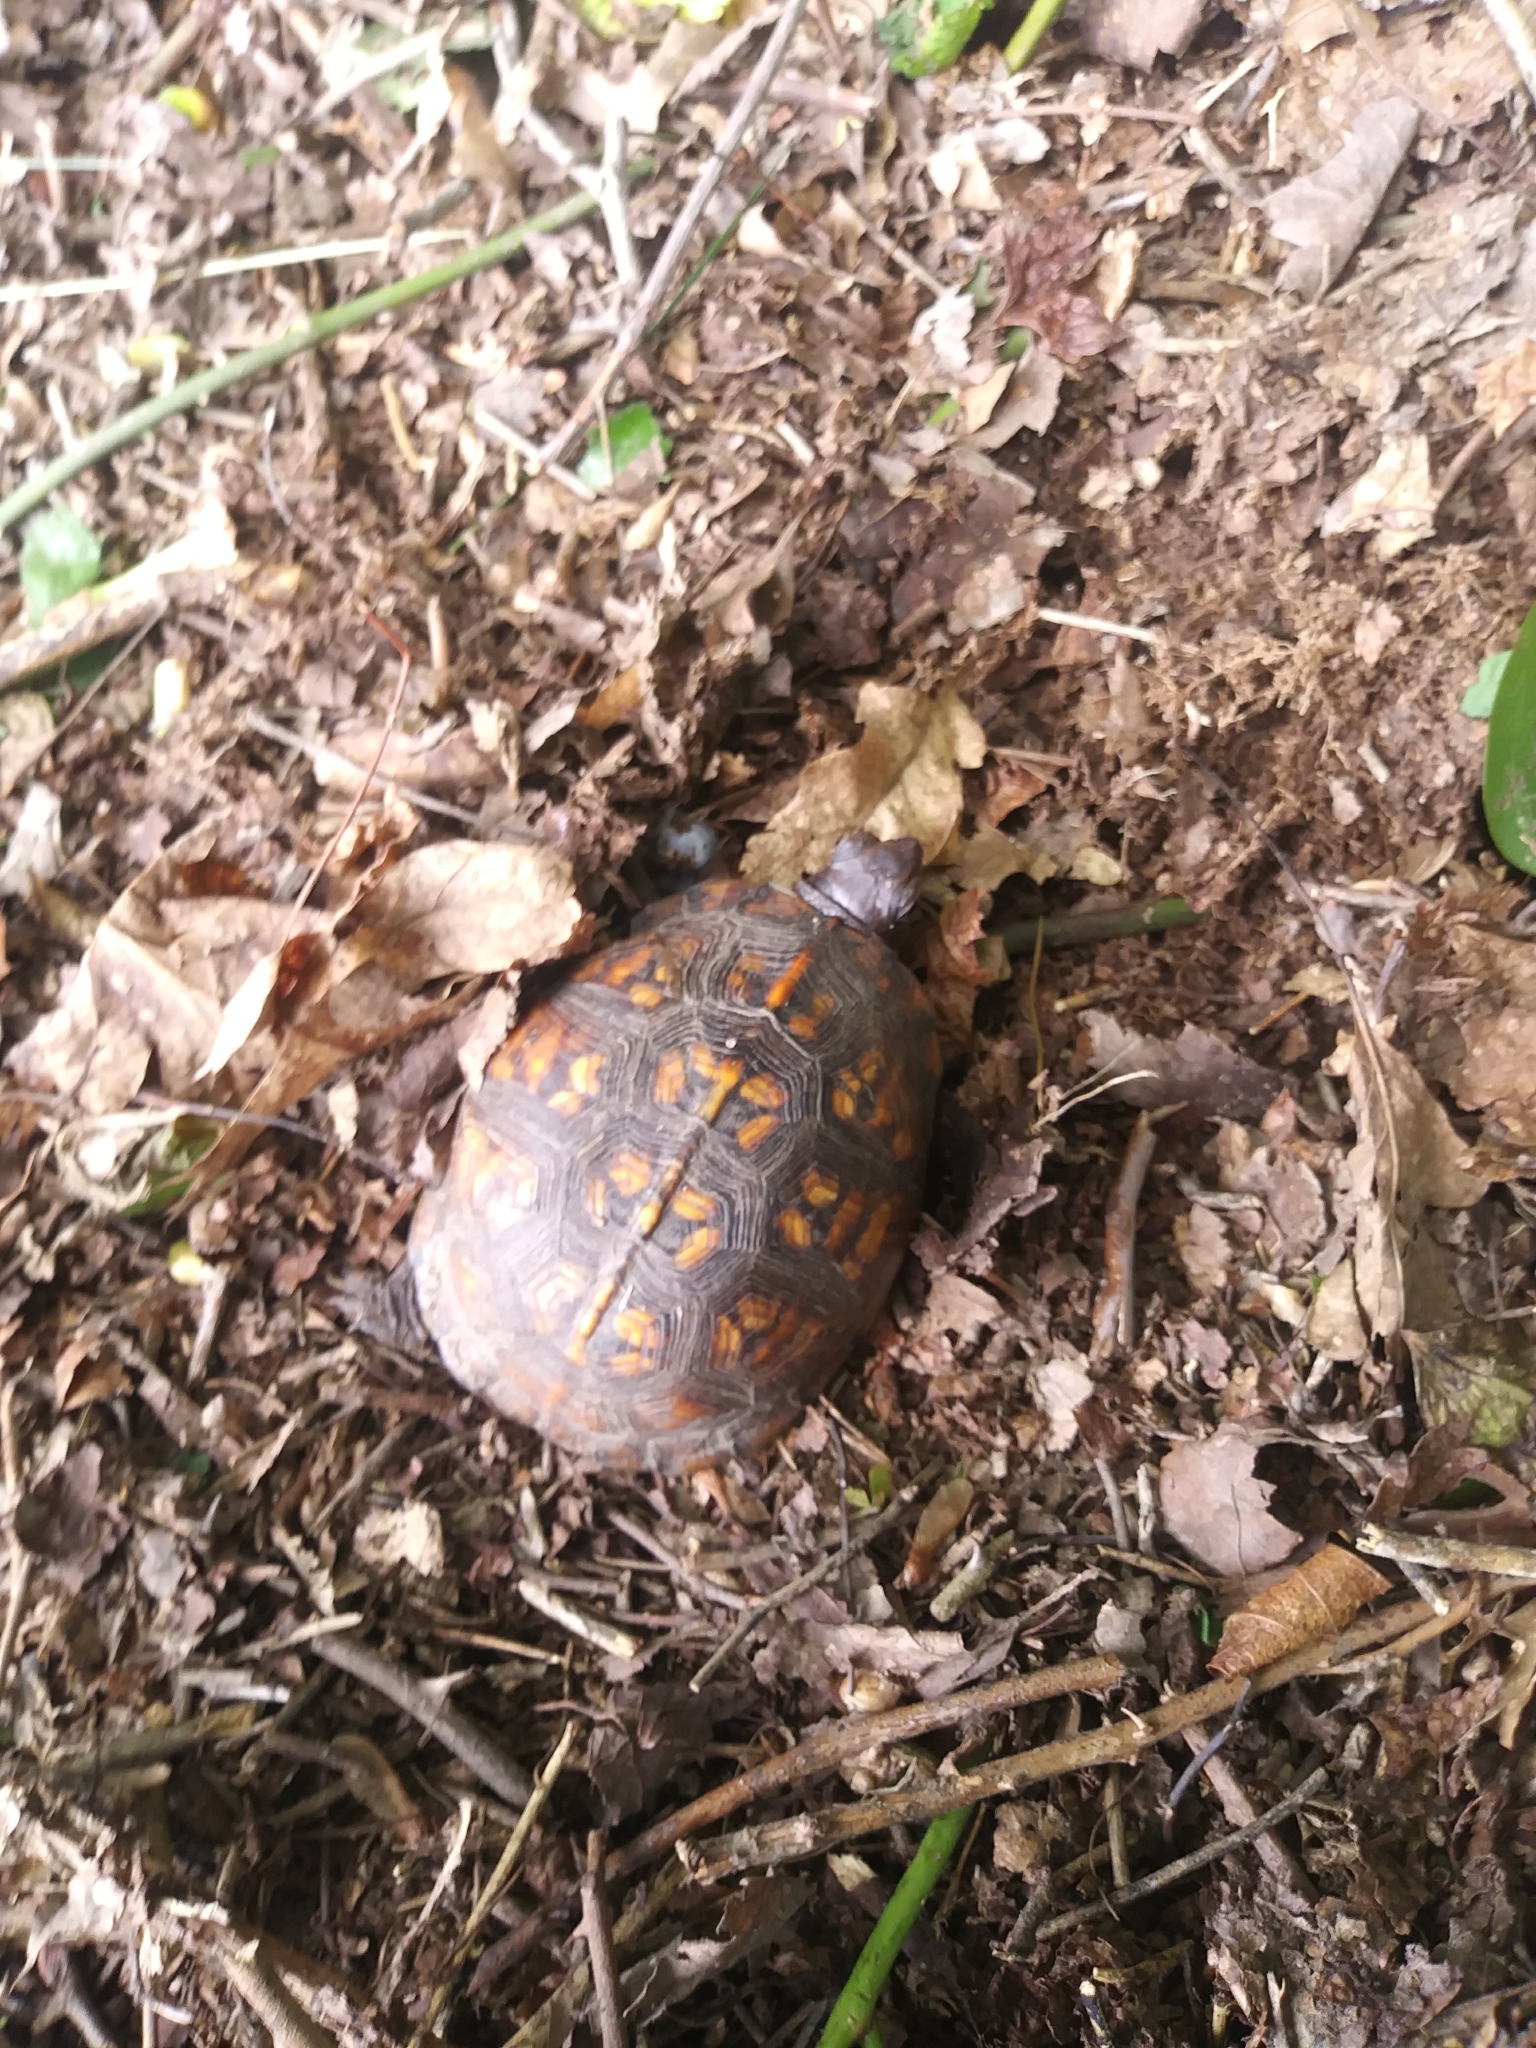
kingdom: Animalia
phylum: Chordata
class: Testudines
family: Emydidae
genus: Terrapene
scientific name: Terrapene carolina
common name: Common box turtle
